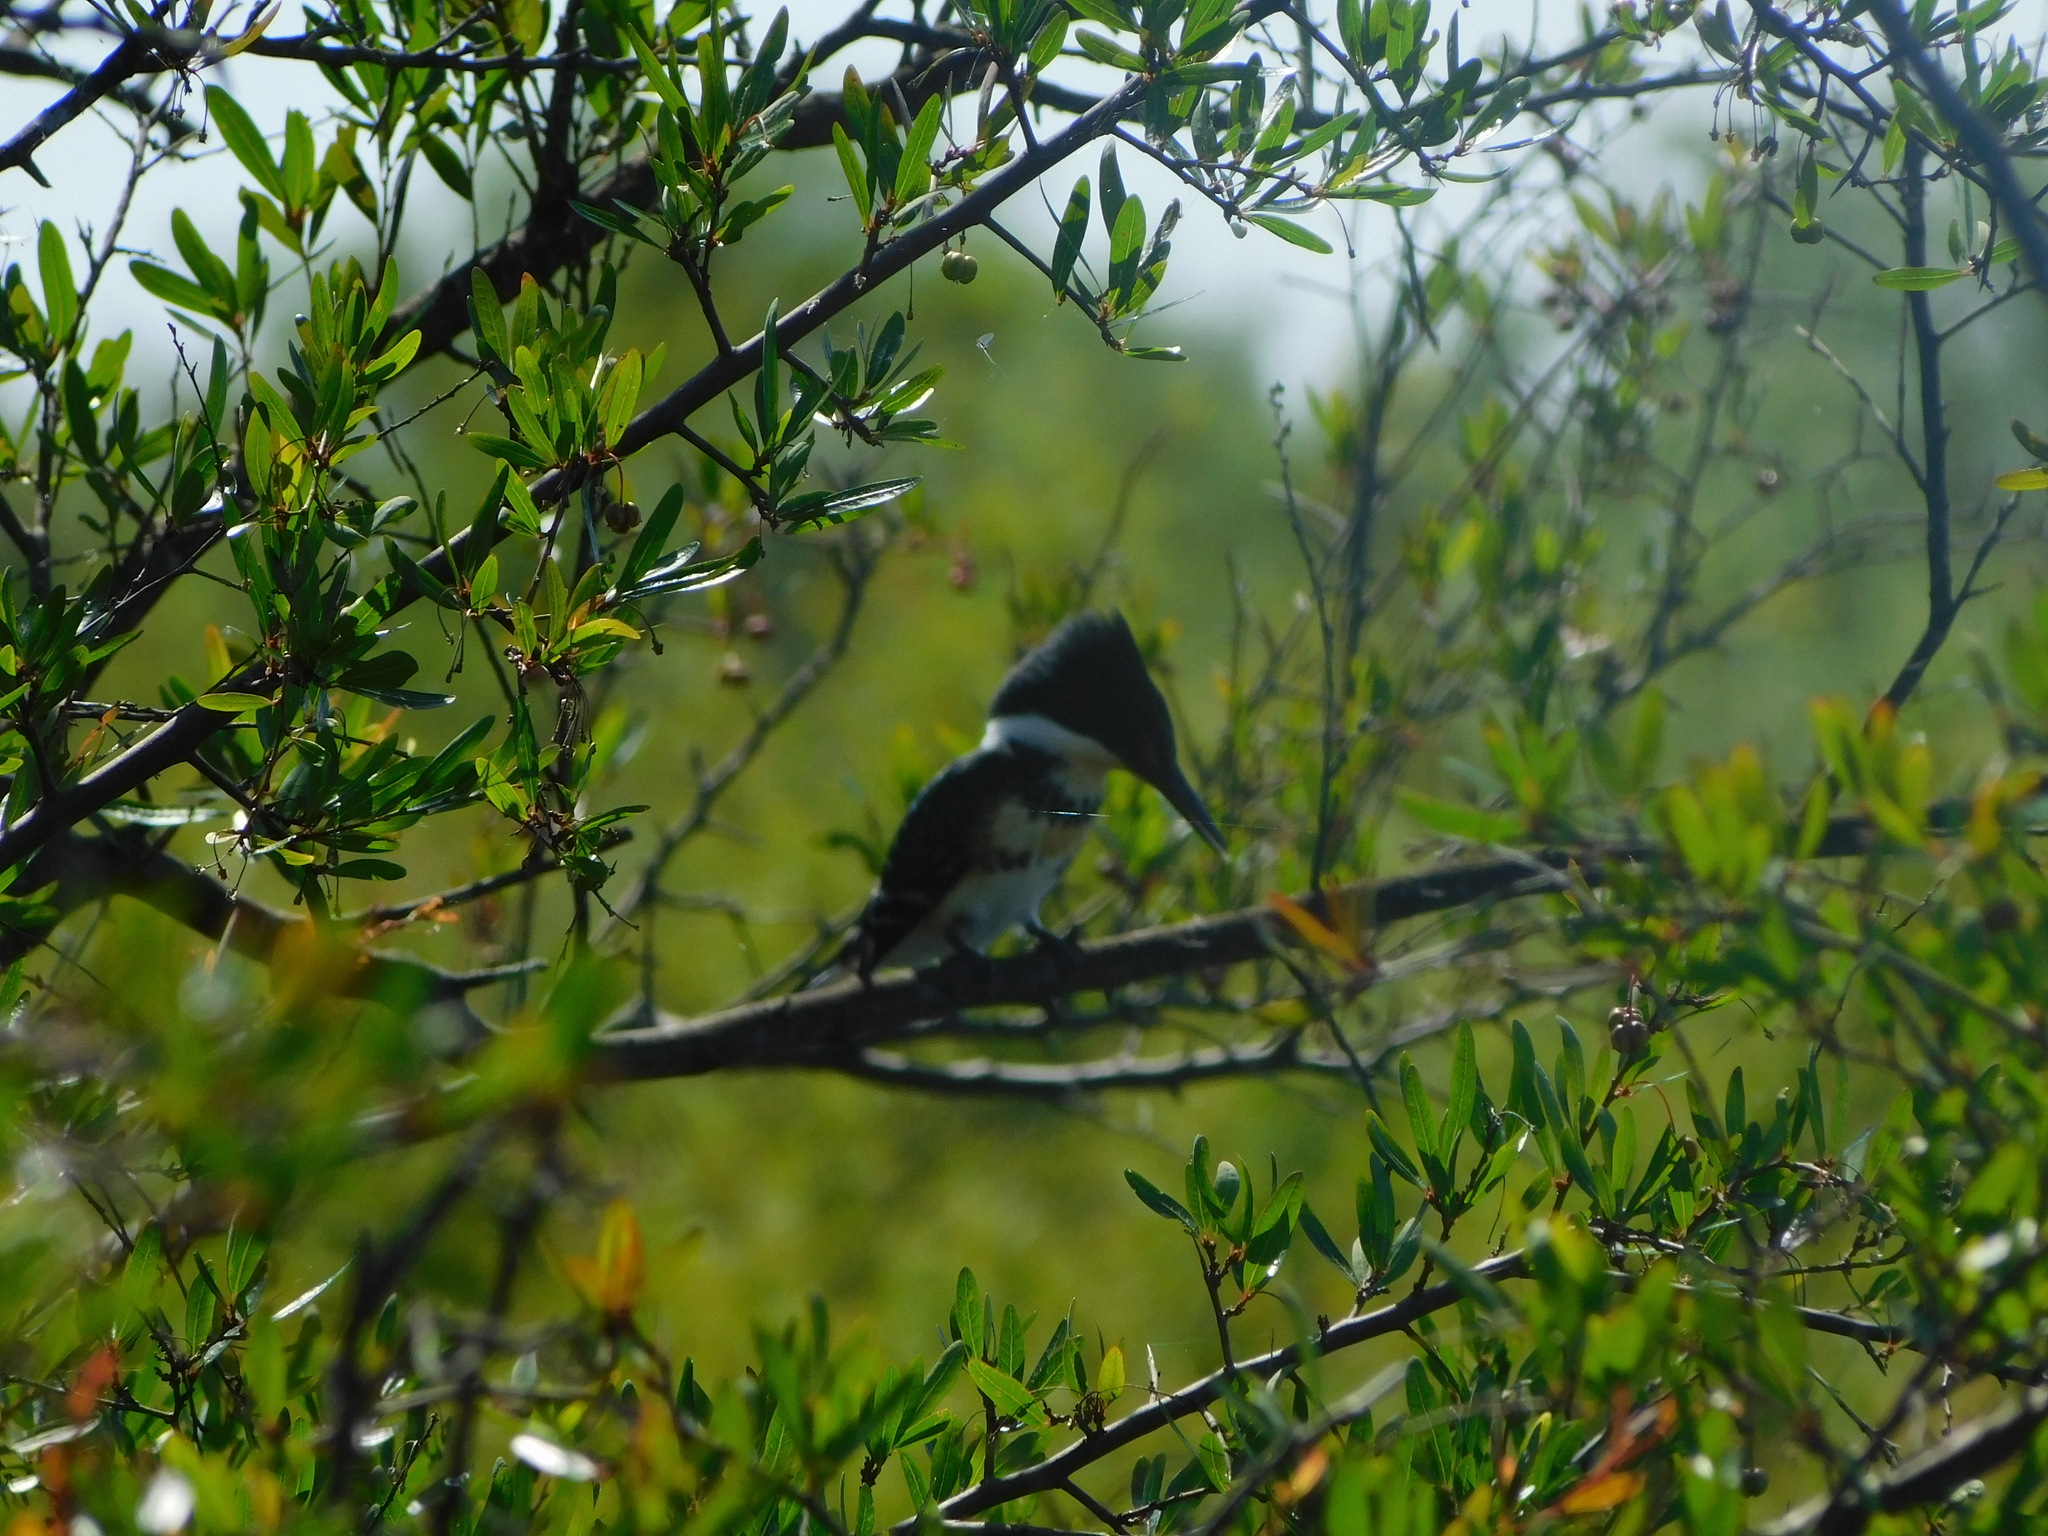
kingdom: Animalia
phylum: Chordata
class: Aves
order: Coraciiformes
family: Alcedinidae
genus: Chloroceryle
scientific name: Chloroceryle americana
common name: Green kingfisher
